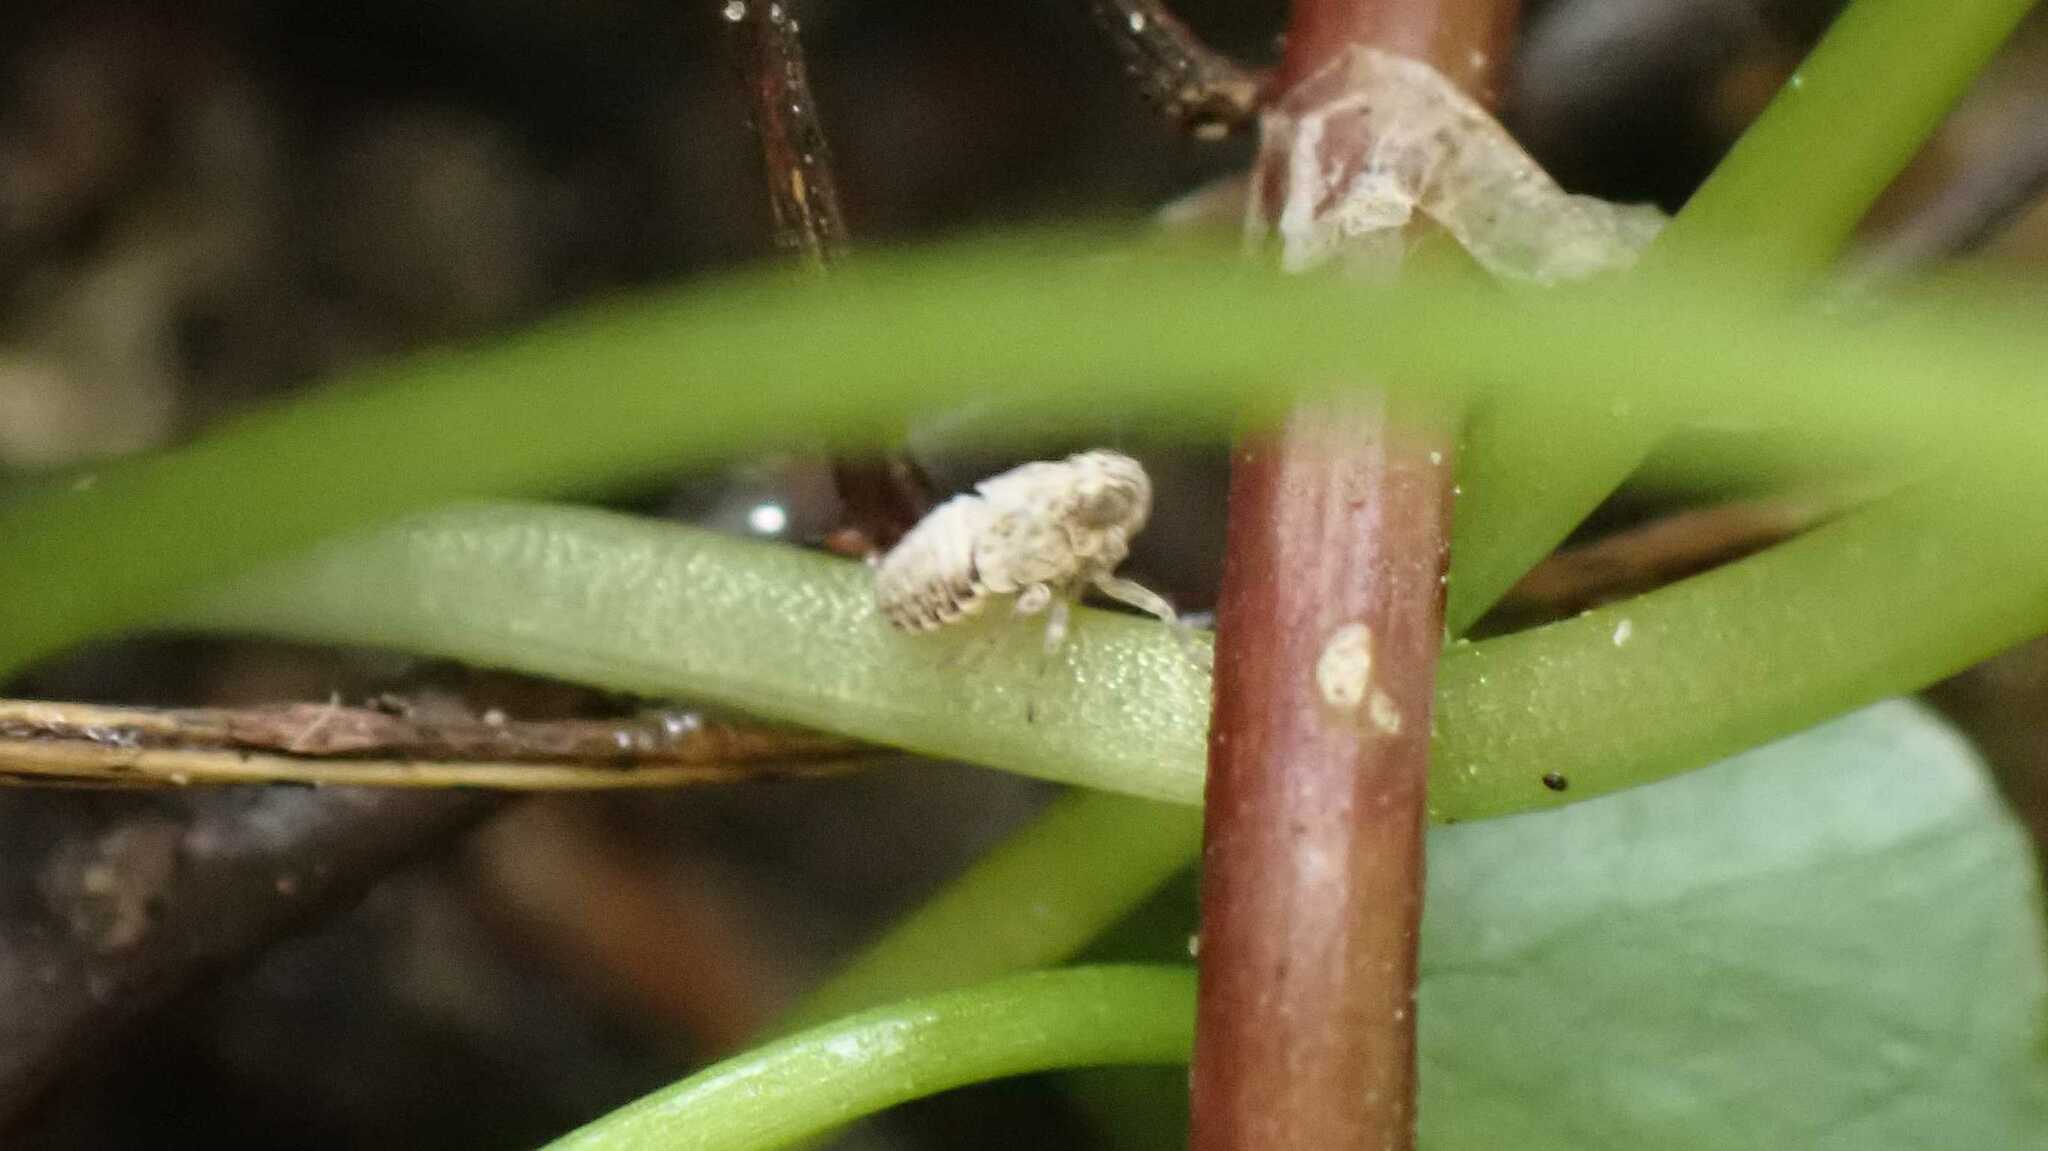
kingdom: Animalia
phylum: Arthropoda
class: Insecta
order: Hemiptera
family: Delphacidae
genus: Javesella
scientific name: Javesella stali
